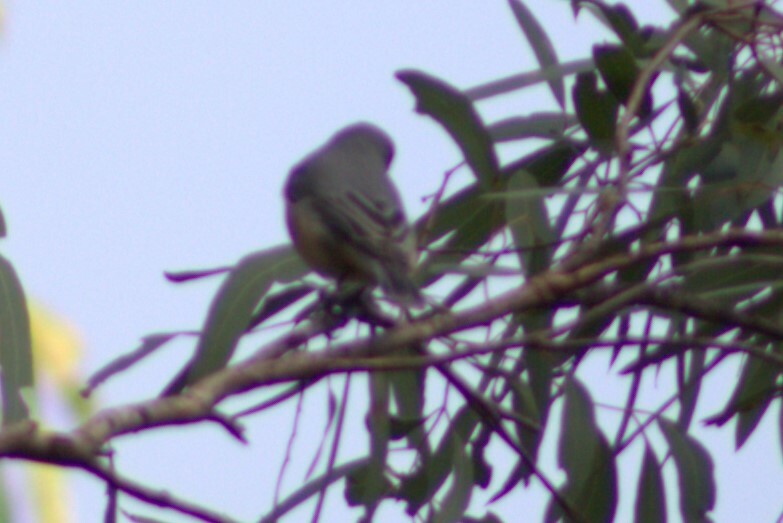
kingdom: Animalia
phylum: Chordata
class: Aves
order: Passeriformes
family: Pachycephalidae
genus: Pachycephala
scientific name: Pachycephala rufiventris
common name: Rufous whistler
